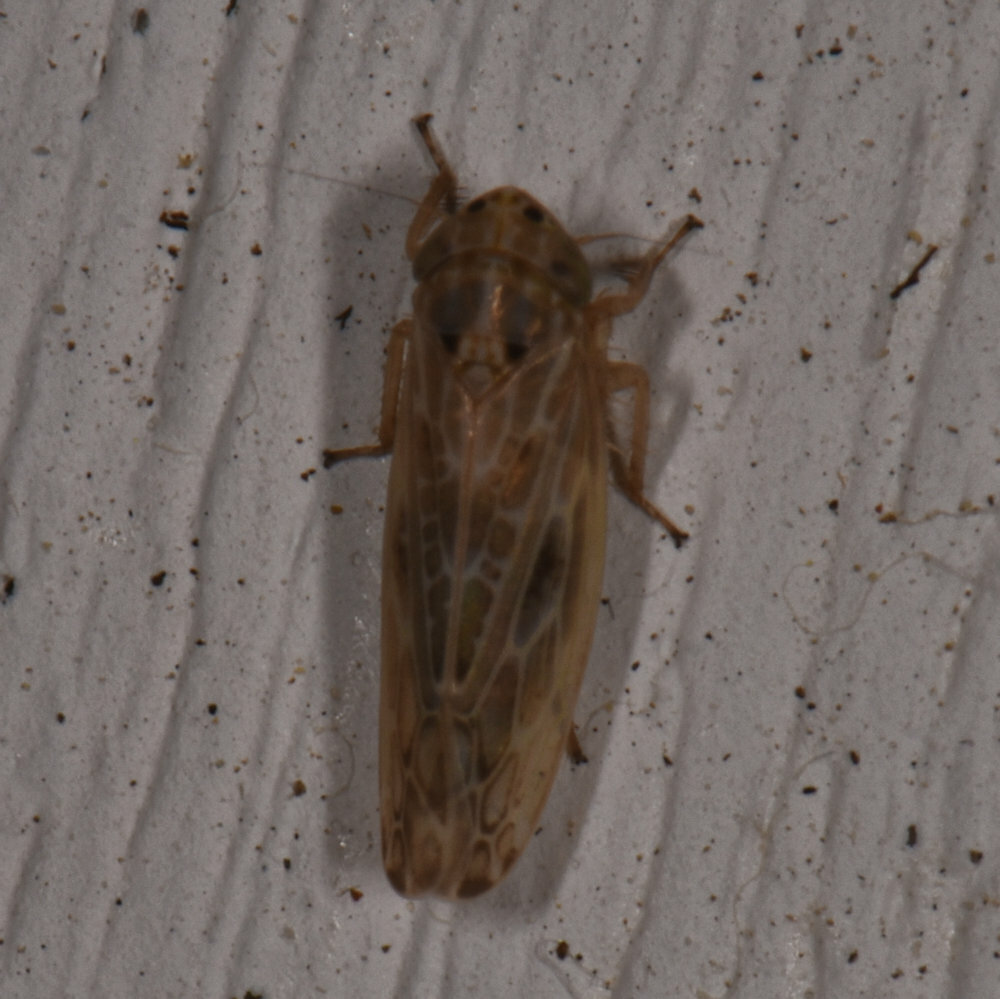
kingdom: Animalia
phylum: Arthropoda
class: Insecta
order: Hemiptera
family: Cicadellidae
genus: Endria
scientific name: Endria inimicus
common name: Painted leafhopper
